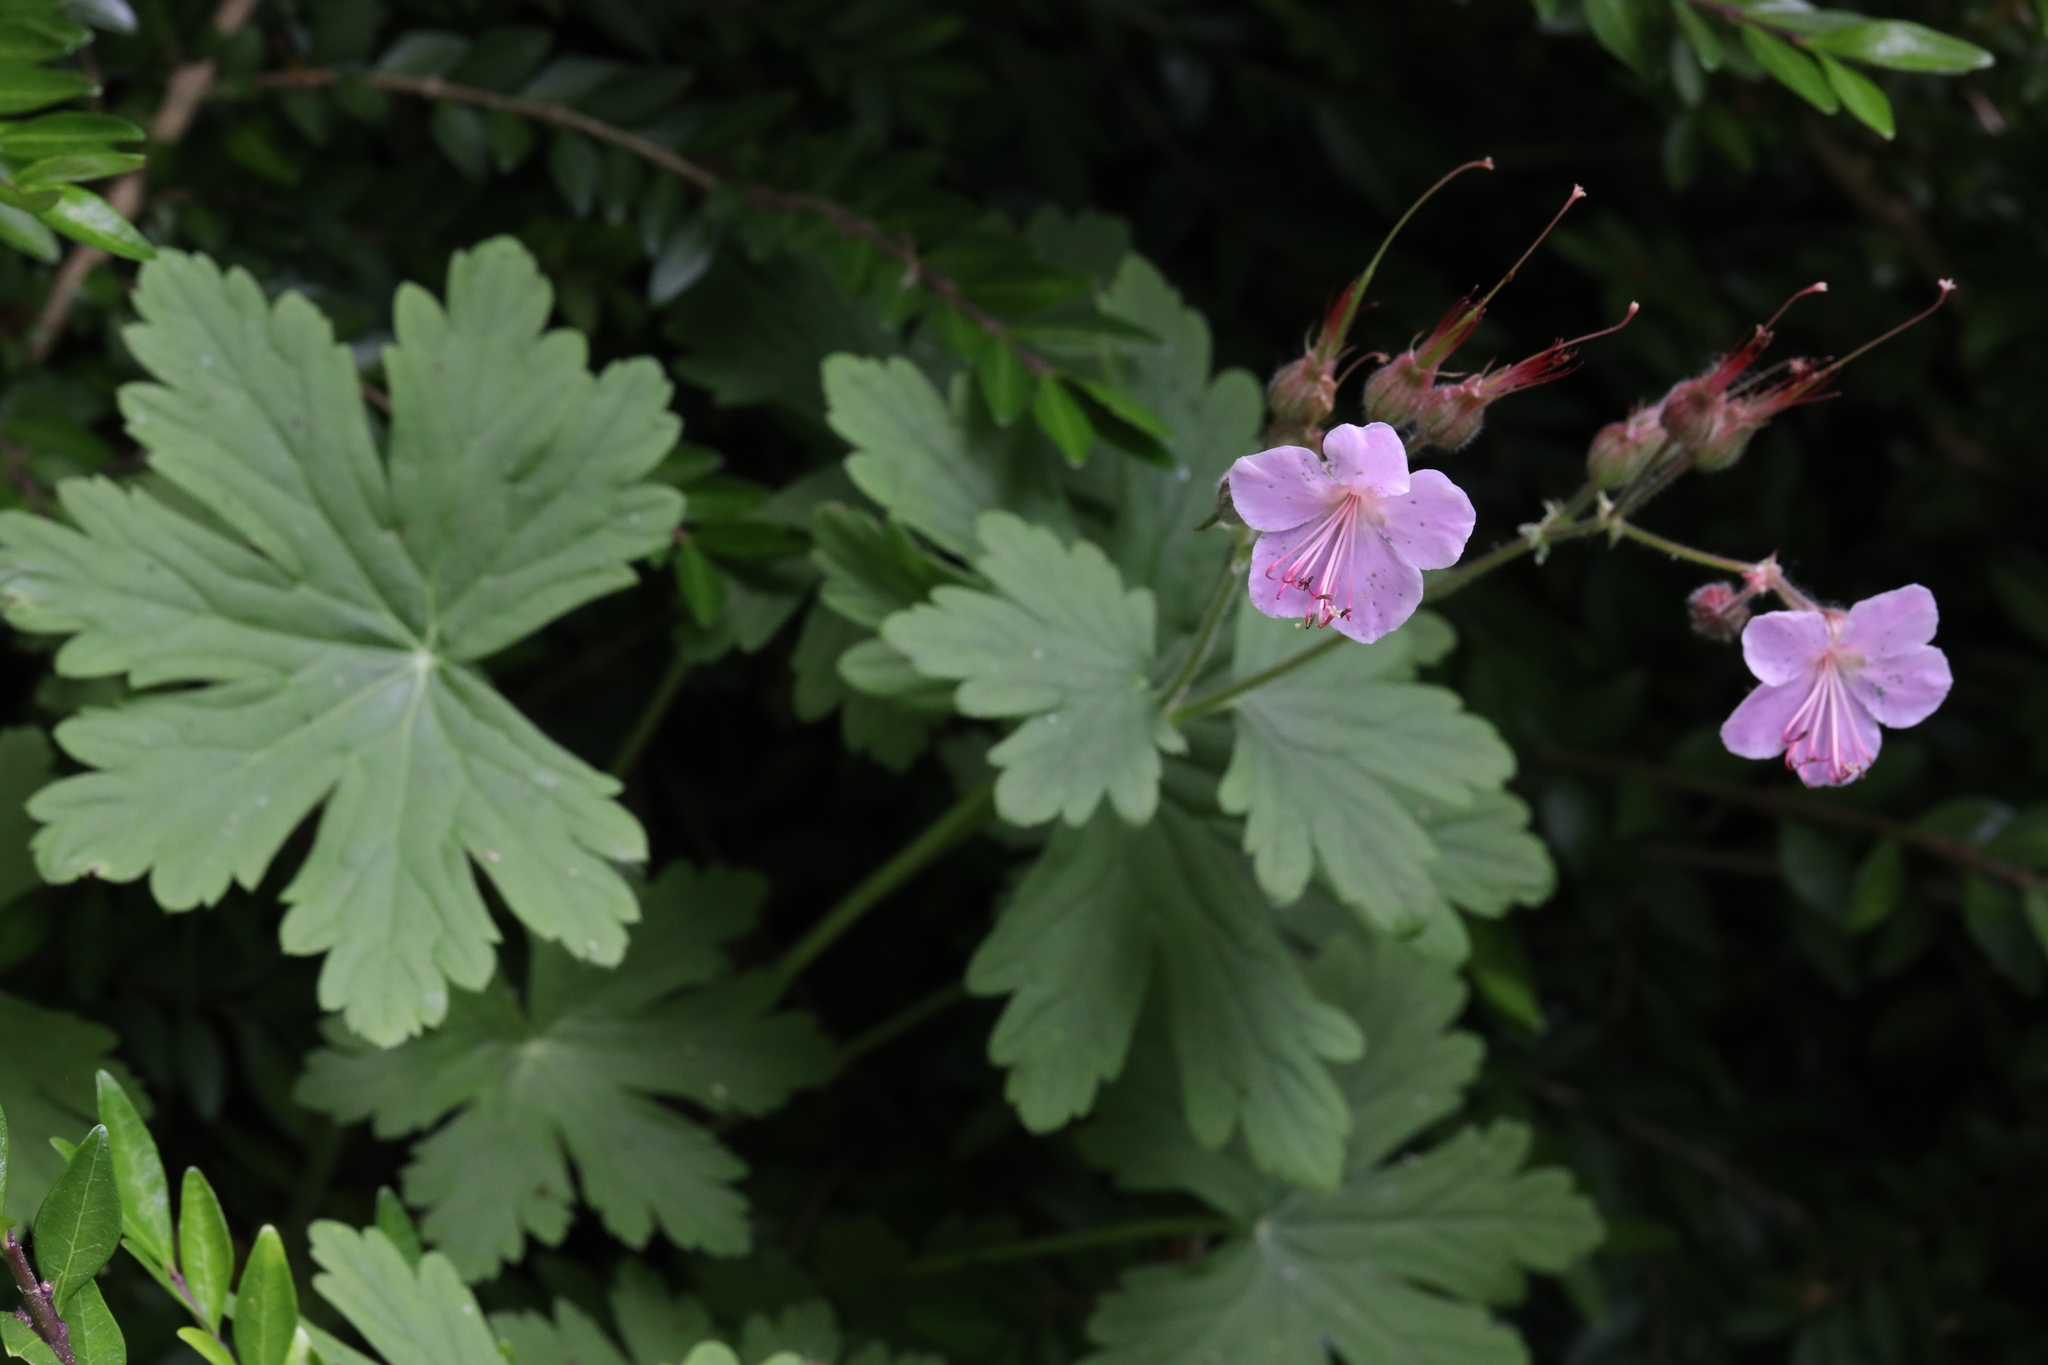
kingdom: Plantae
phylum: Tracheophyta
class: Magnoliopsida
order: Geraniales
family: Geraniaceae
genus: Geranium
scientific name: Geranium macrorrhizum
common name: Rock crane's-bill
